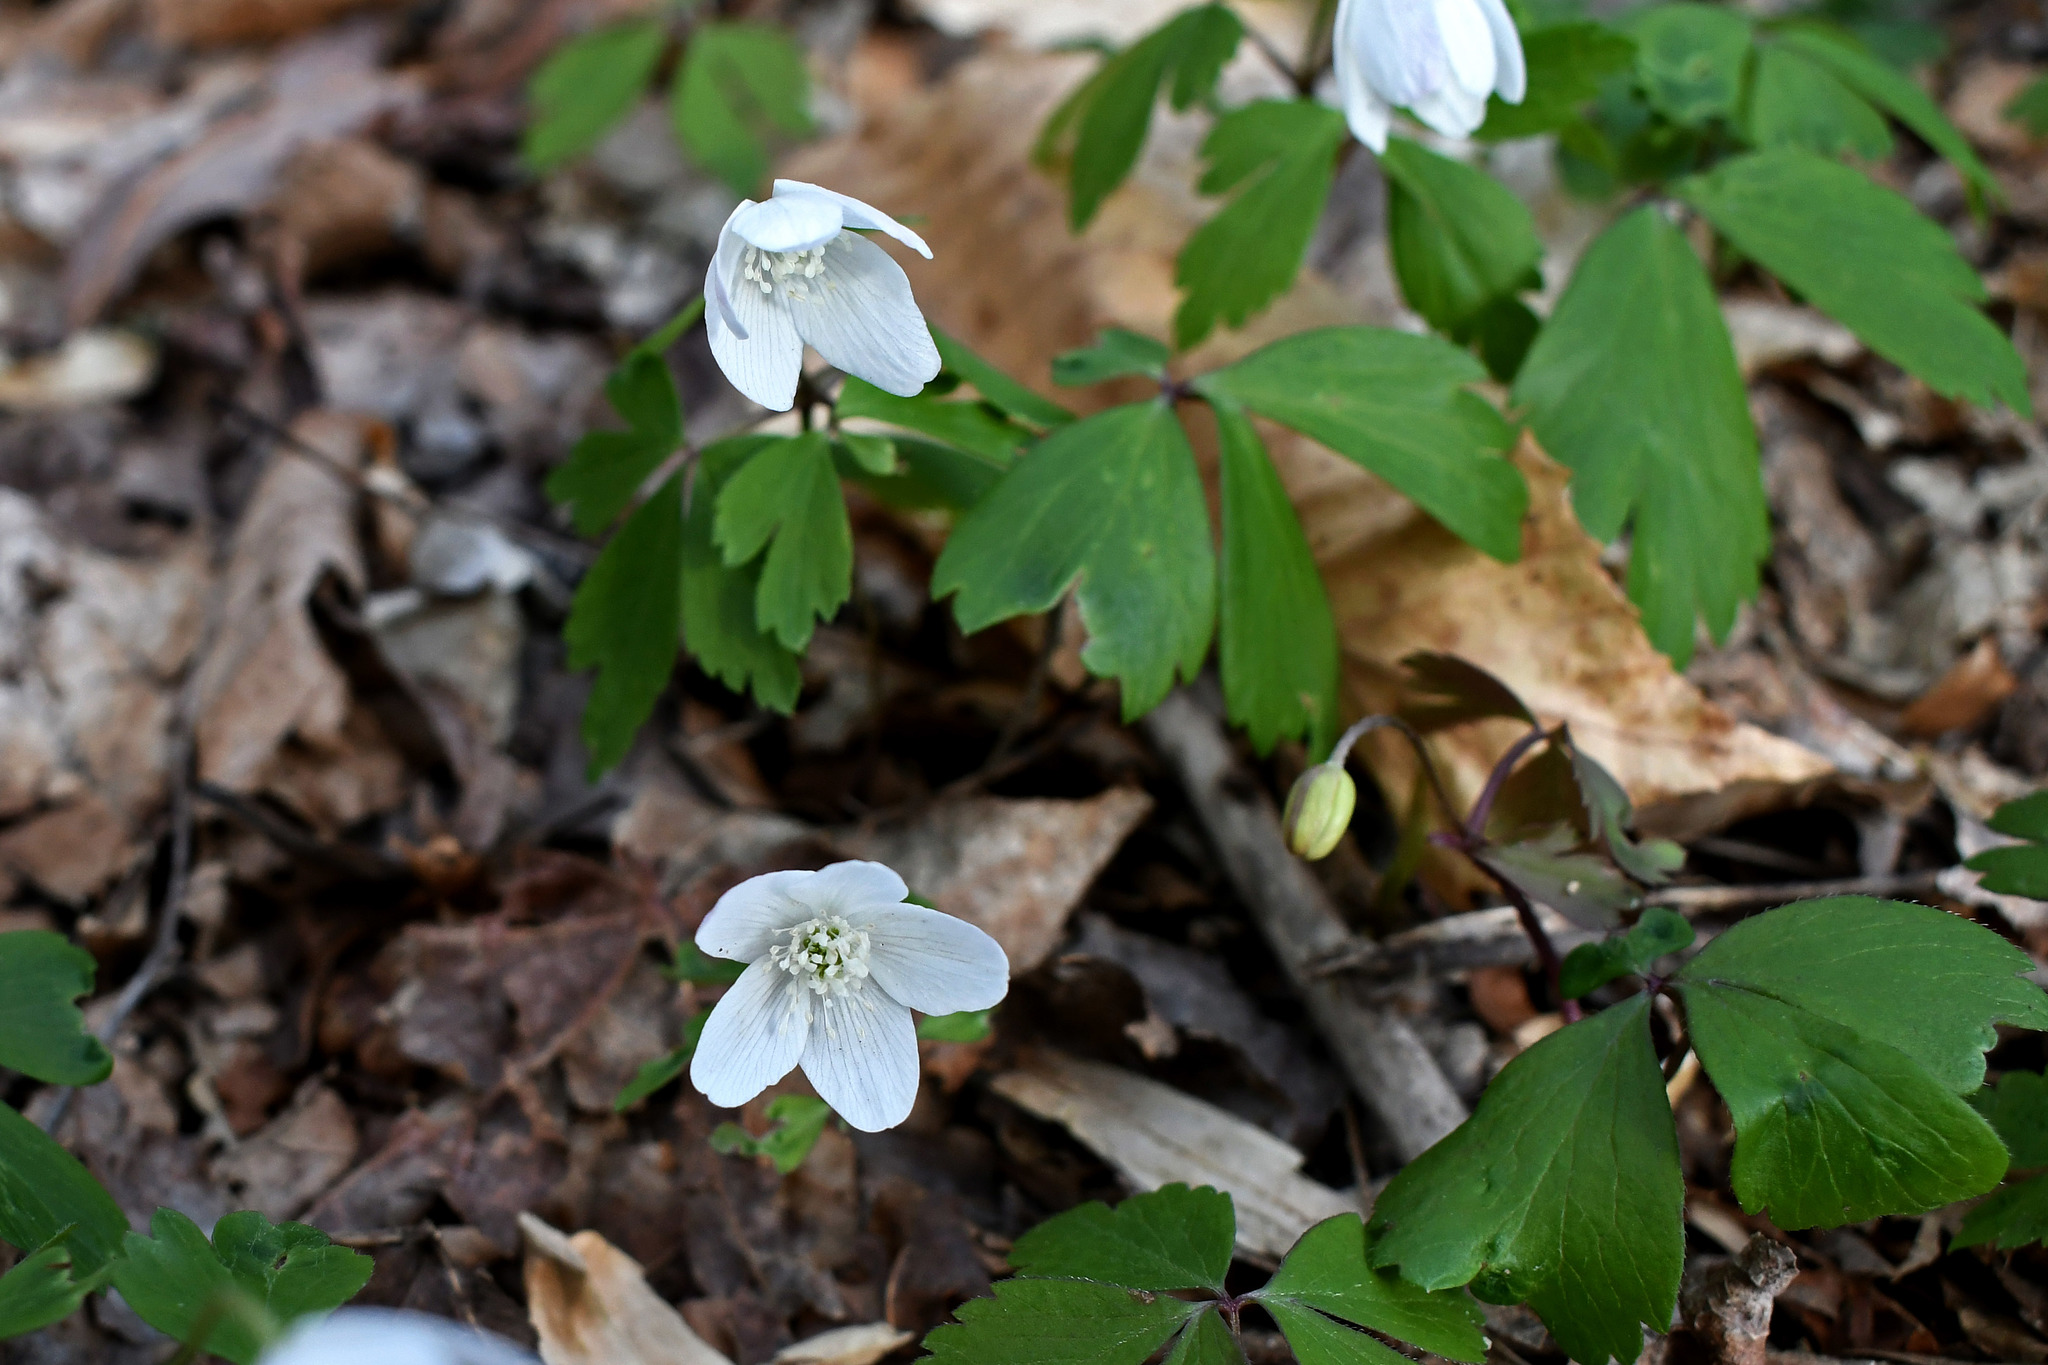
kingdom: Plantae
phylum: Tracheophyta
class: Magnoliopsida
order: Ranunculales
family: Ranunculaceae
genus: Anemone
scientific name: Anemone quinquefolia
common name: Wood anemone
